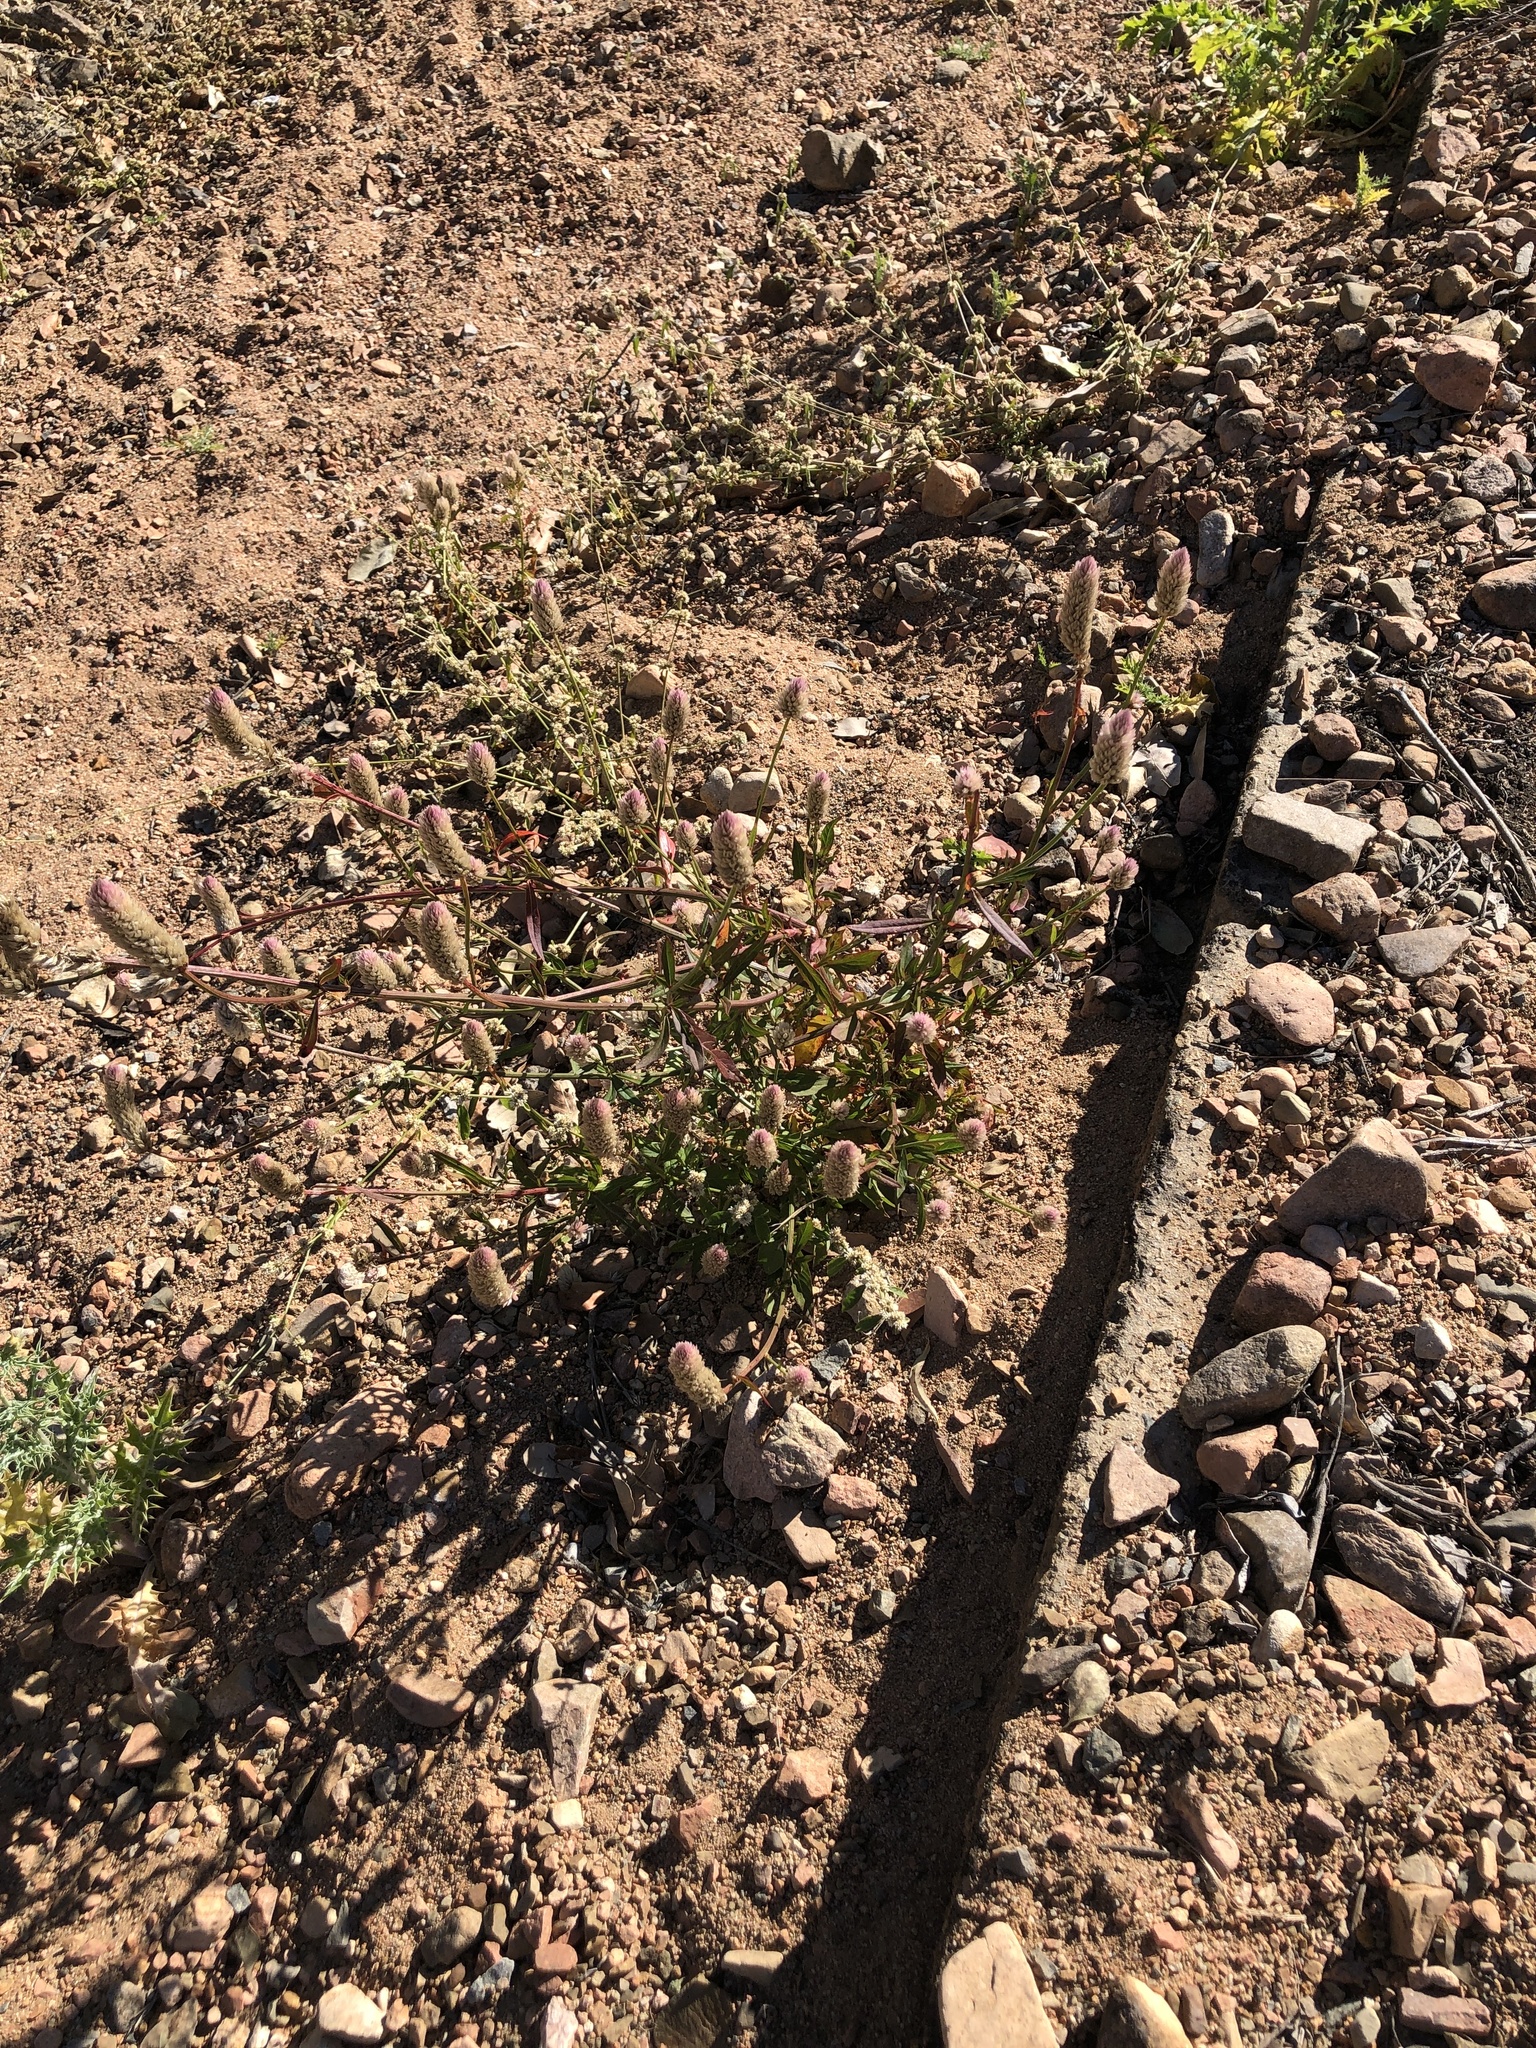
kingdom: Plantae
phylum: Tracheophyta
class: Magnoliopsida
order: Caryophyllales
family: Amaranthaceae
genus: Celosia
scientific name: Celosia argentea
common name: Feather cockscomb
